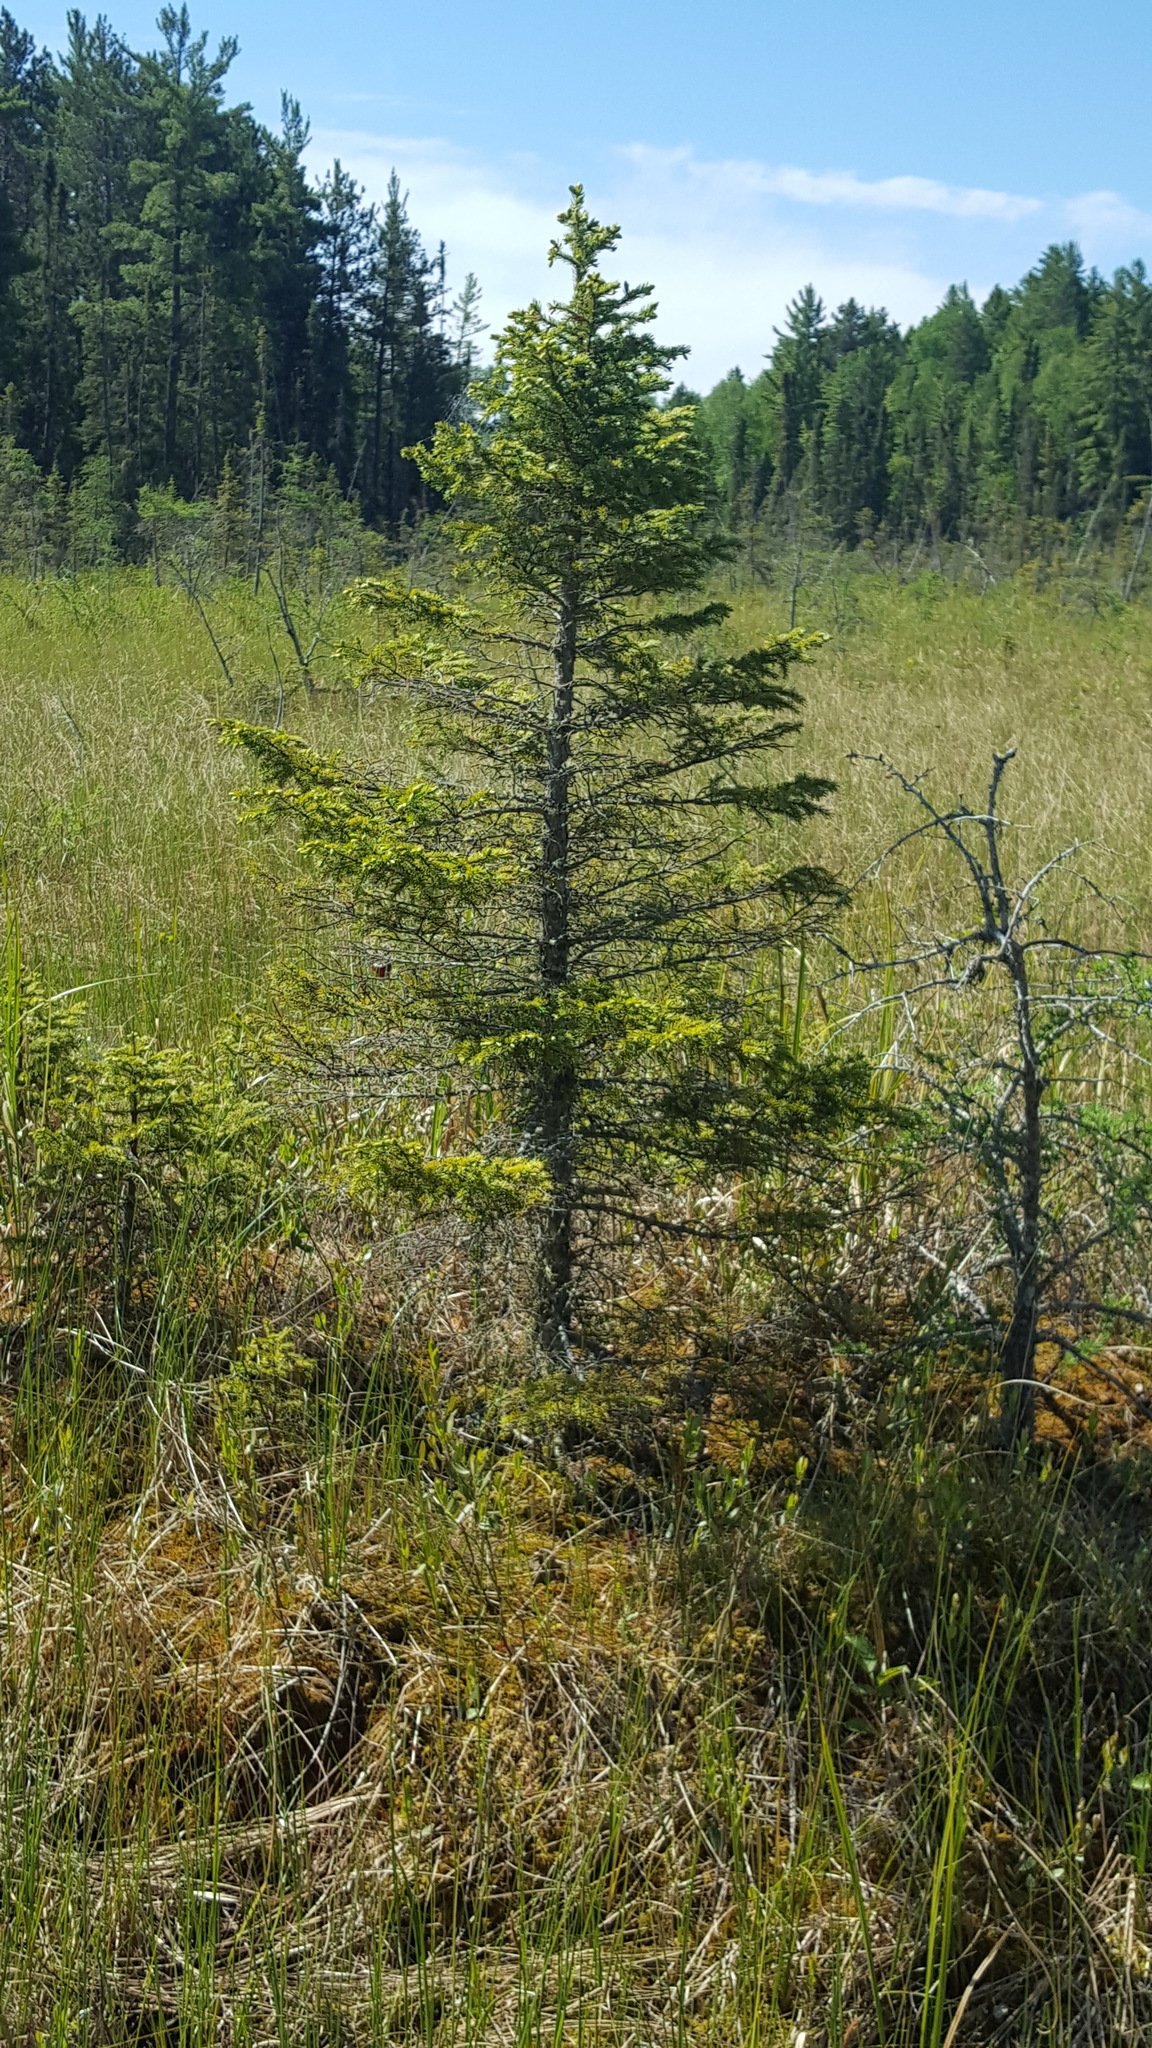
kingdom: Plantae
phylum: Tracheophyta
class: Pinopsida
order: Pinales
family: Pinaceae
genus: Picea
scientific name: Picea mariana
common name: Black spruce
